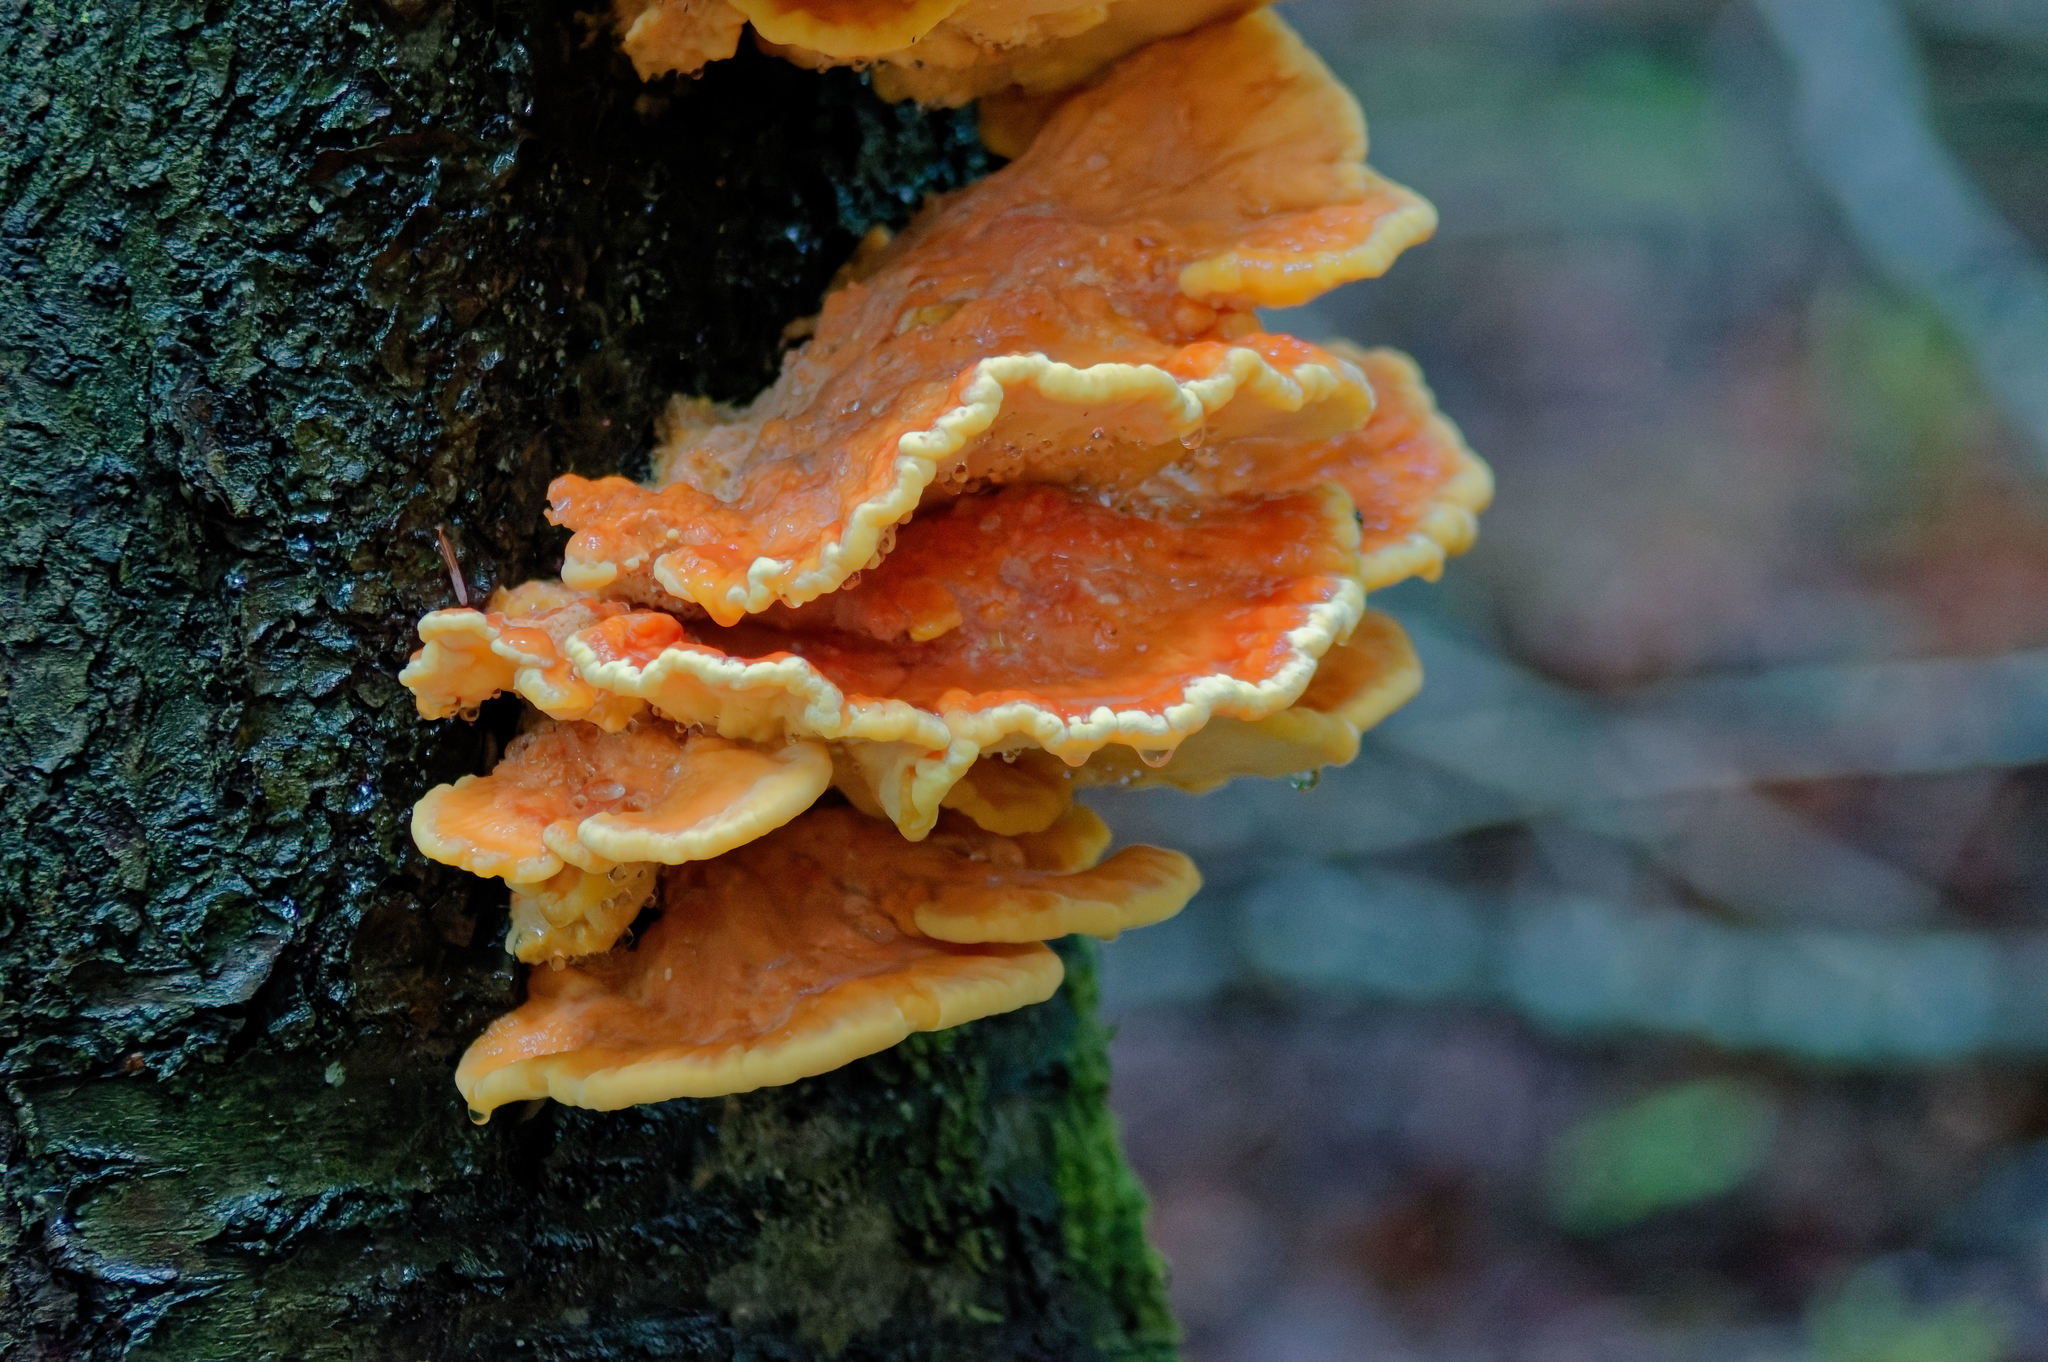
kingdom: Fungi
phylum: Basidiomycota
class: Agaricomycetes
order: Polyporales
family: Laetiporaceae
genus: Laetiporus
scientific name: Laetiporus sulphureus
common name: Chicken of the woods
